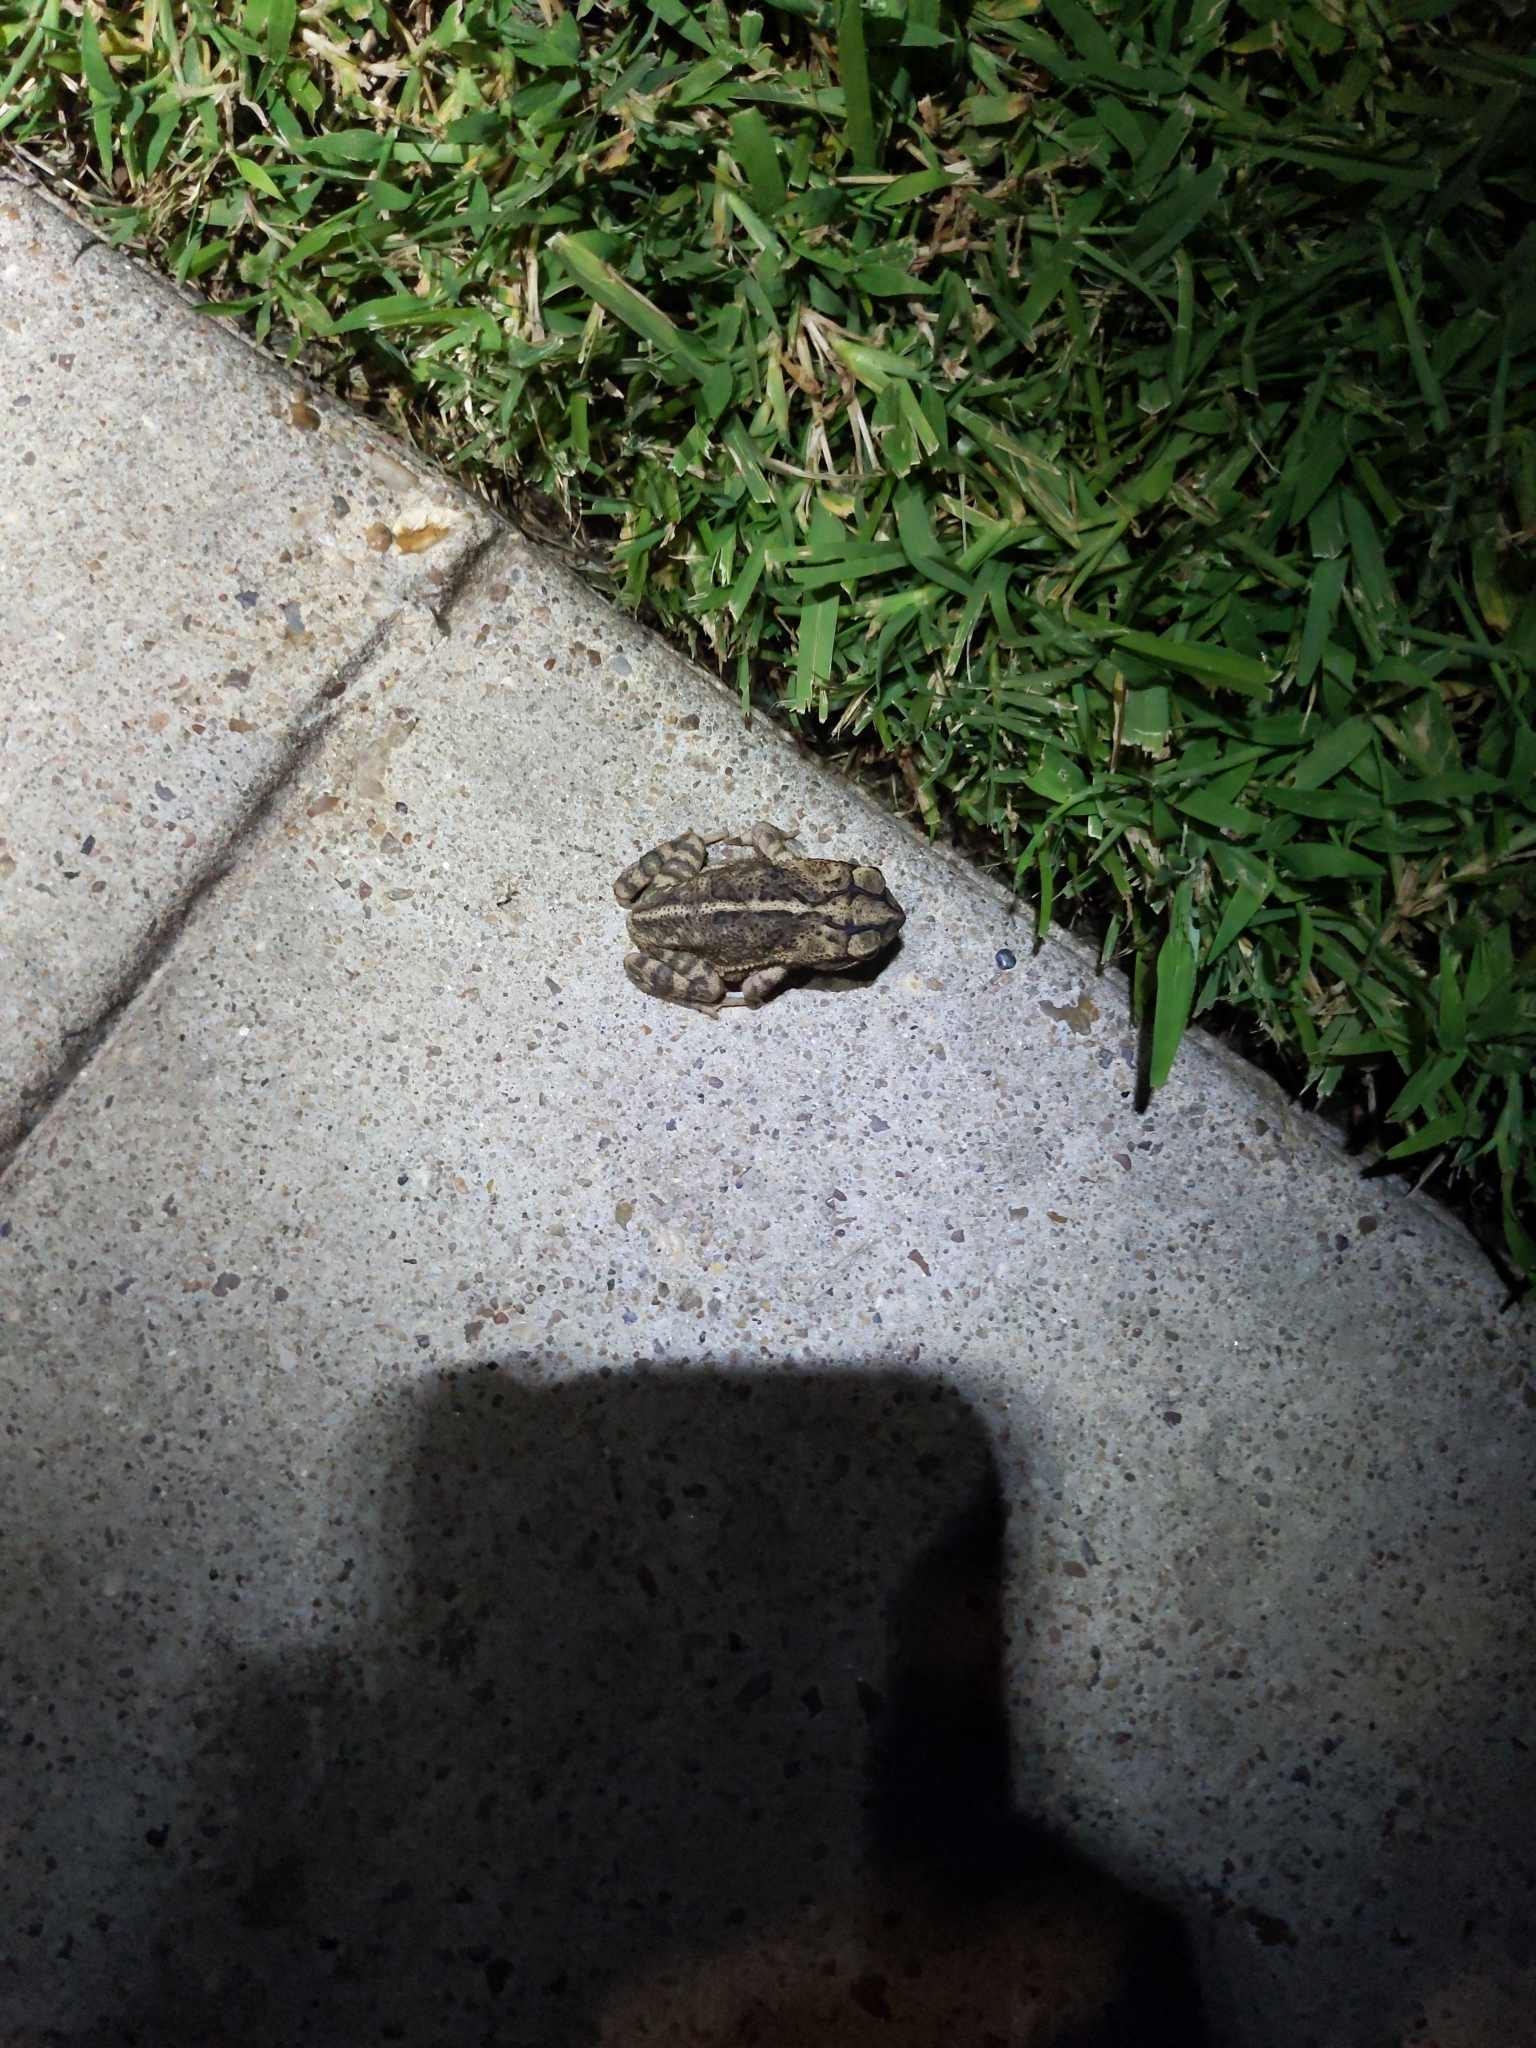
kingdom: Animalia
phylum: Chordata
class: Amphibia
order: Anura
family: Bufonidae
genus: Incilius
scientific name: Incilius nebulifer
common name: Gulf coast toad
